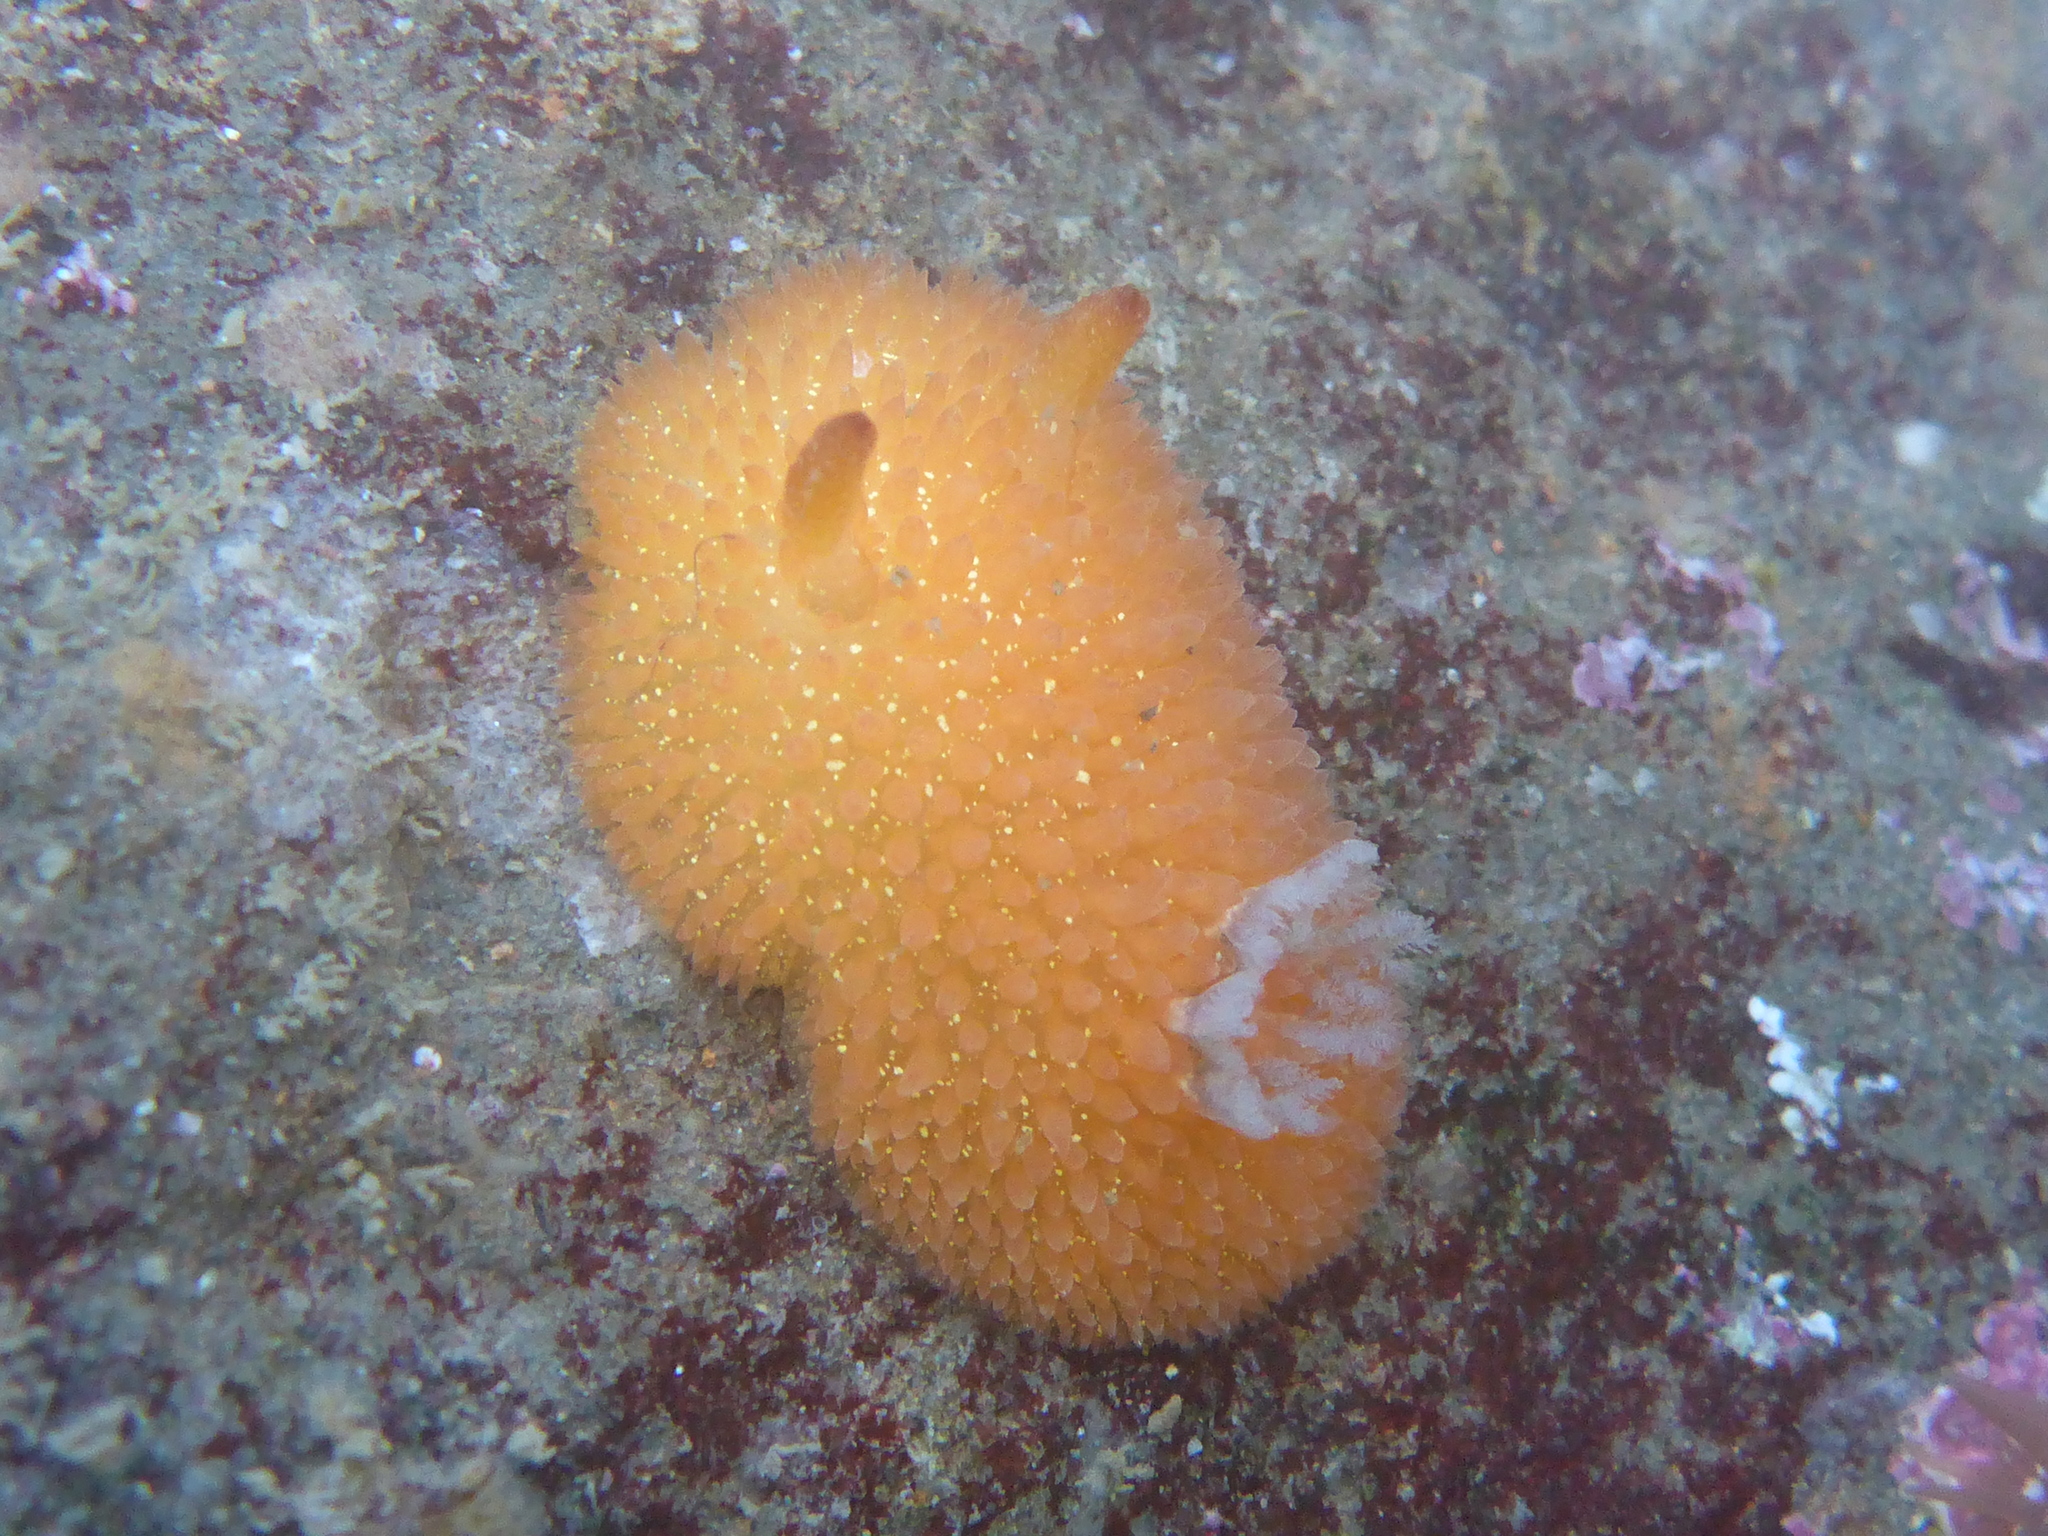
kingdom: Animalia
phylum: Mollusca
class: Gastropoda
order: Nudibranchia
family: Onchidorididae
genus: Acanthodoris
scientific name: Acanthodoris lutea
